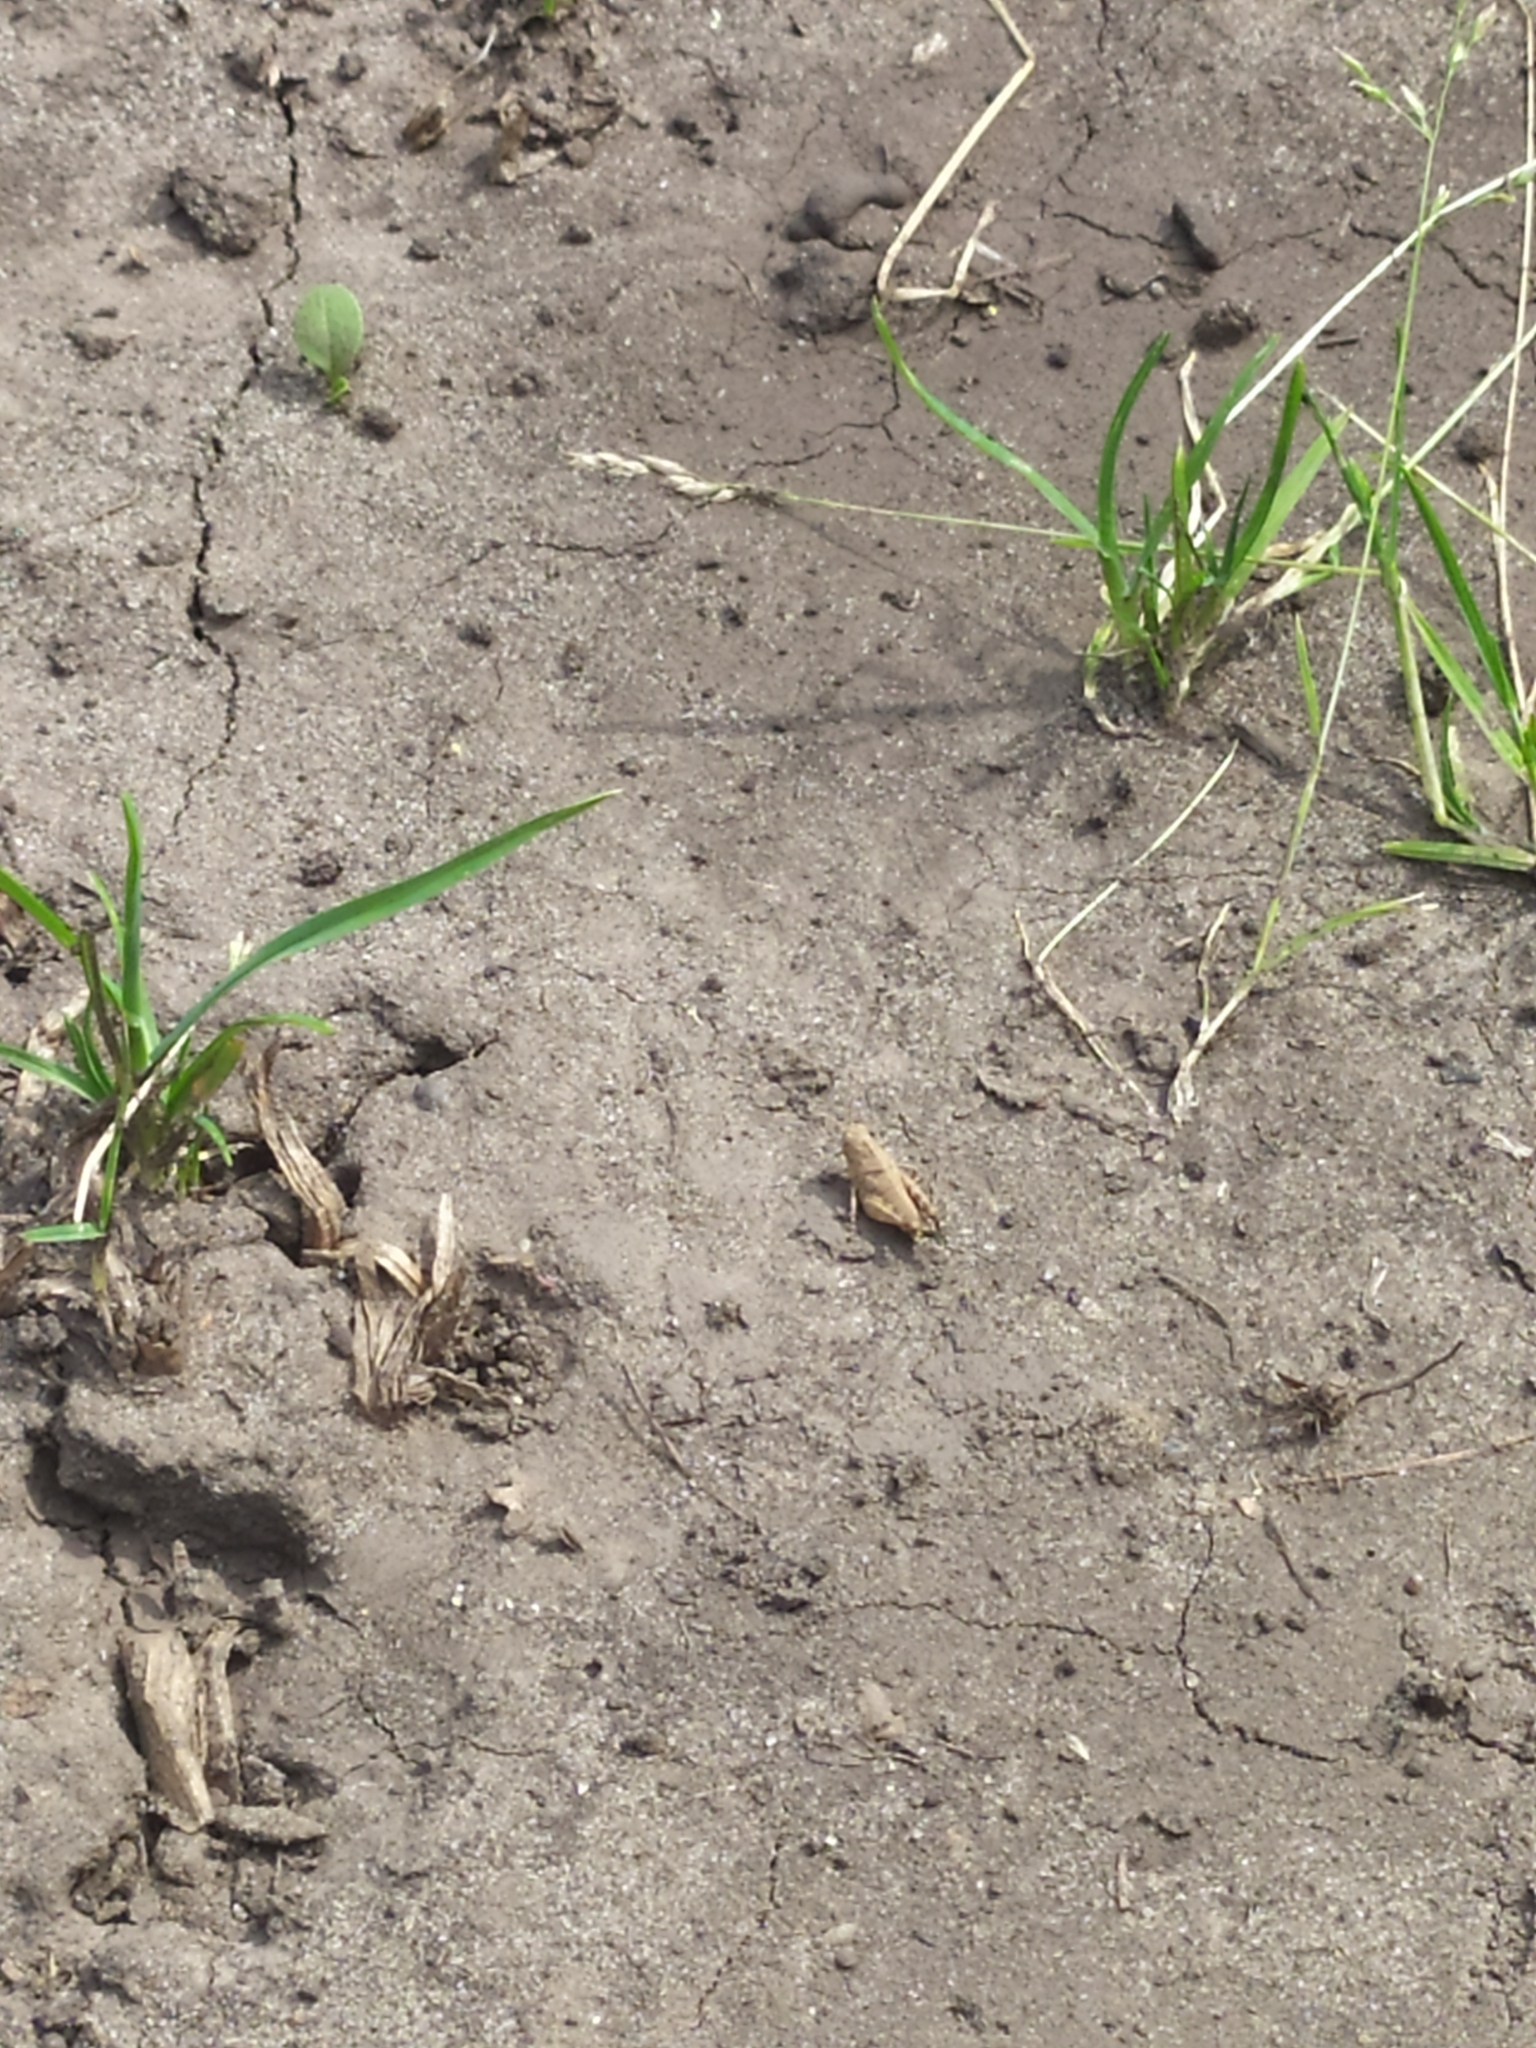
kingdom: Animalia
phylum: Arthropoda
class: Insecta
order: Orthoptera
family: Acrididae
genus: Oedipoda
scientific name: Oedipoda caerulescens
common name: Blue-winged grasshopper
